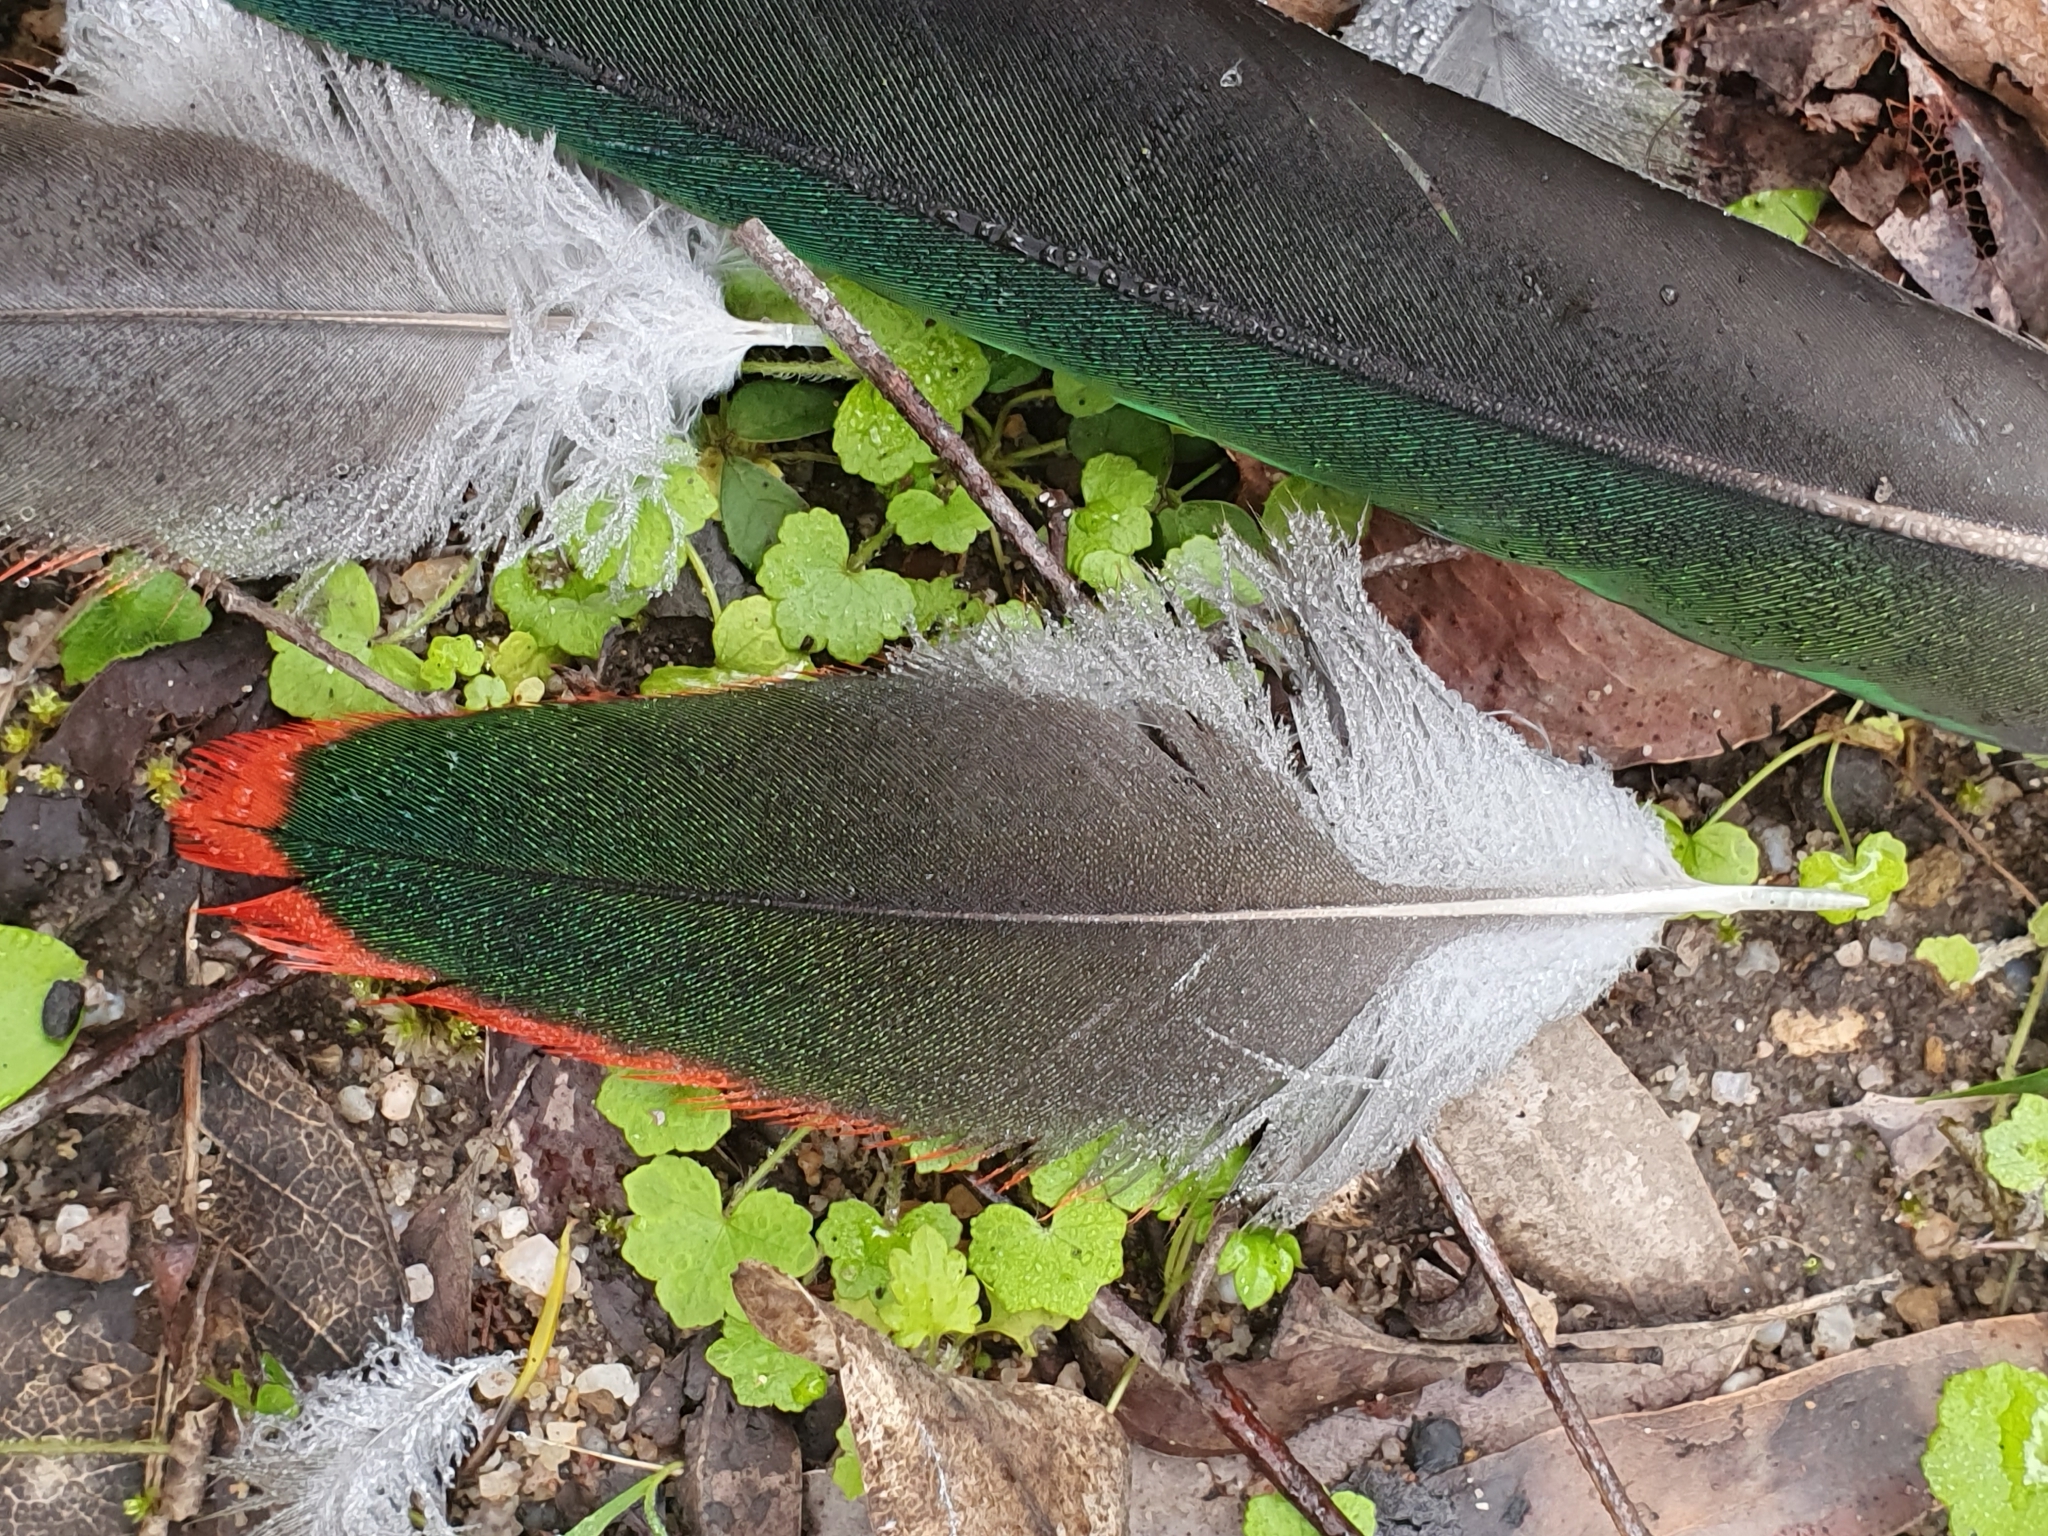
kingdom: Animalia
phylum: Chordata
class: Aves
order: Psittaciformes
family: Psittacidae
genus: Alisterus
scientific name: Alisterus scapularis
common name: Australian king parrot
